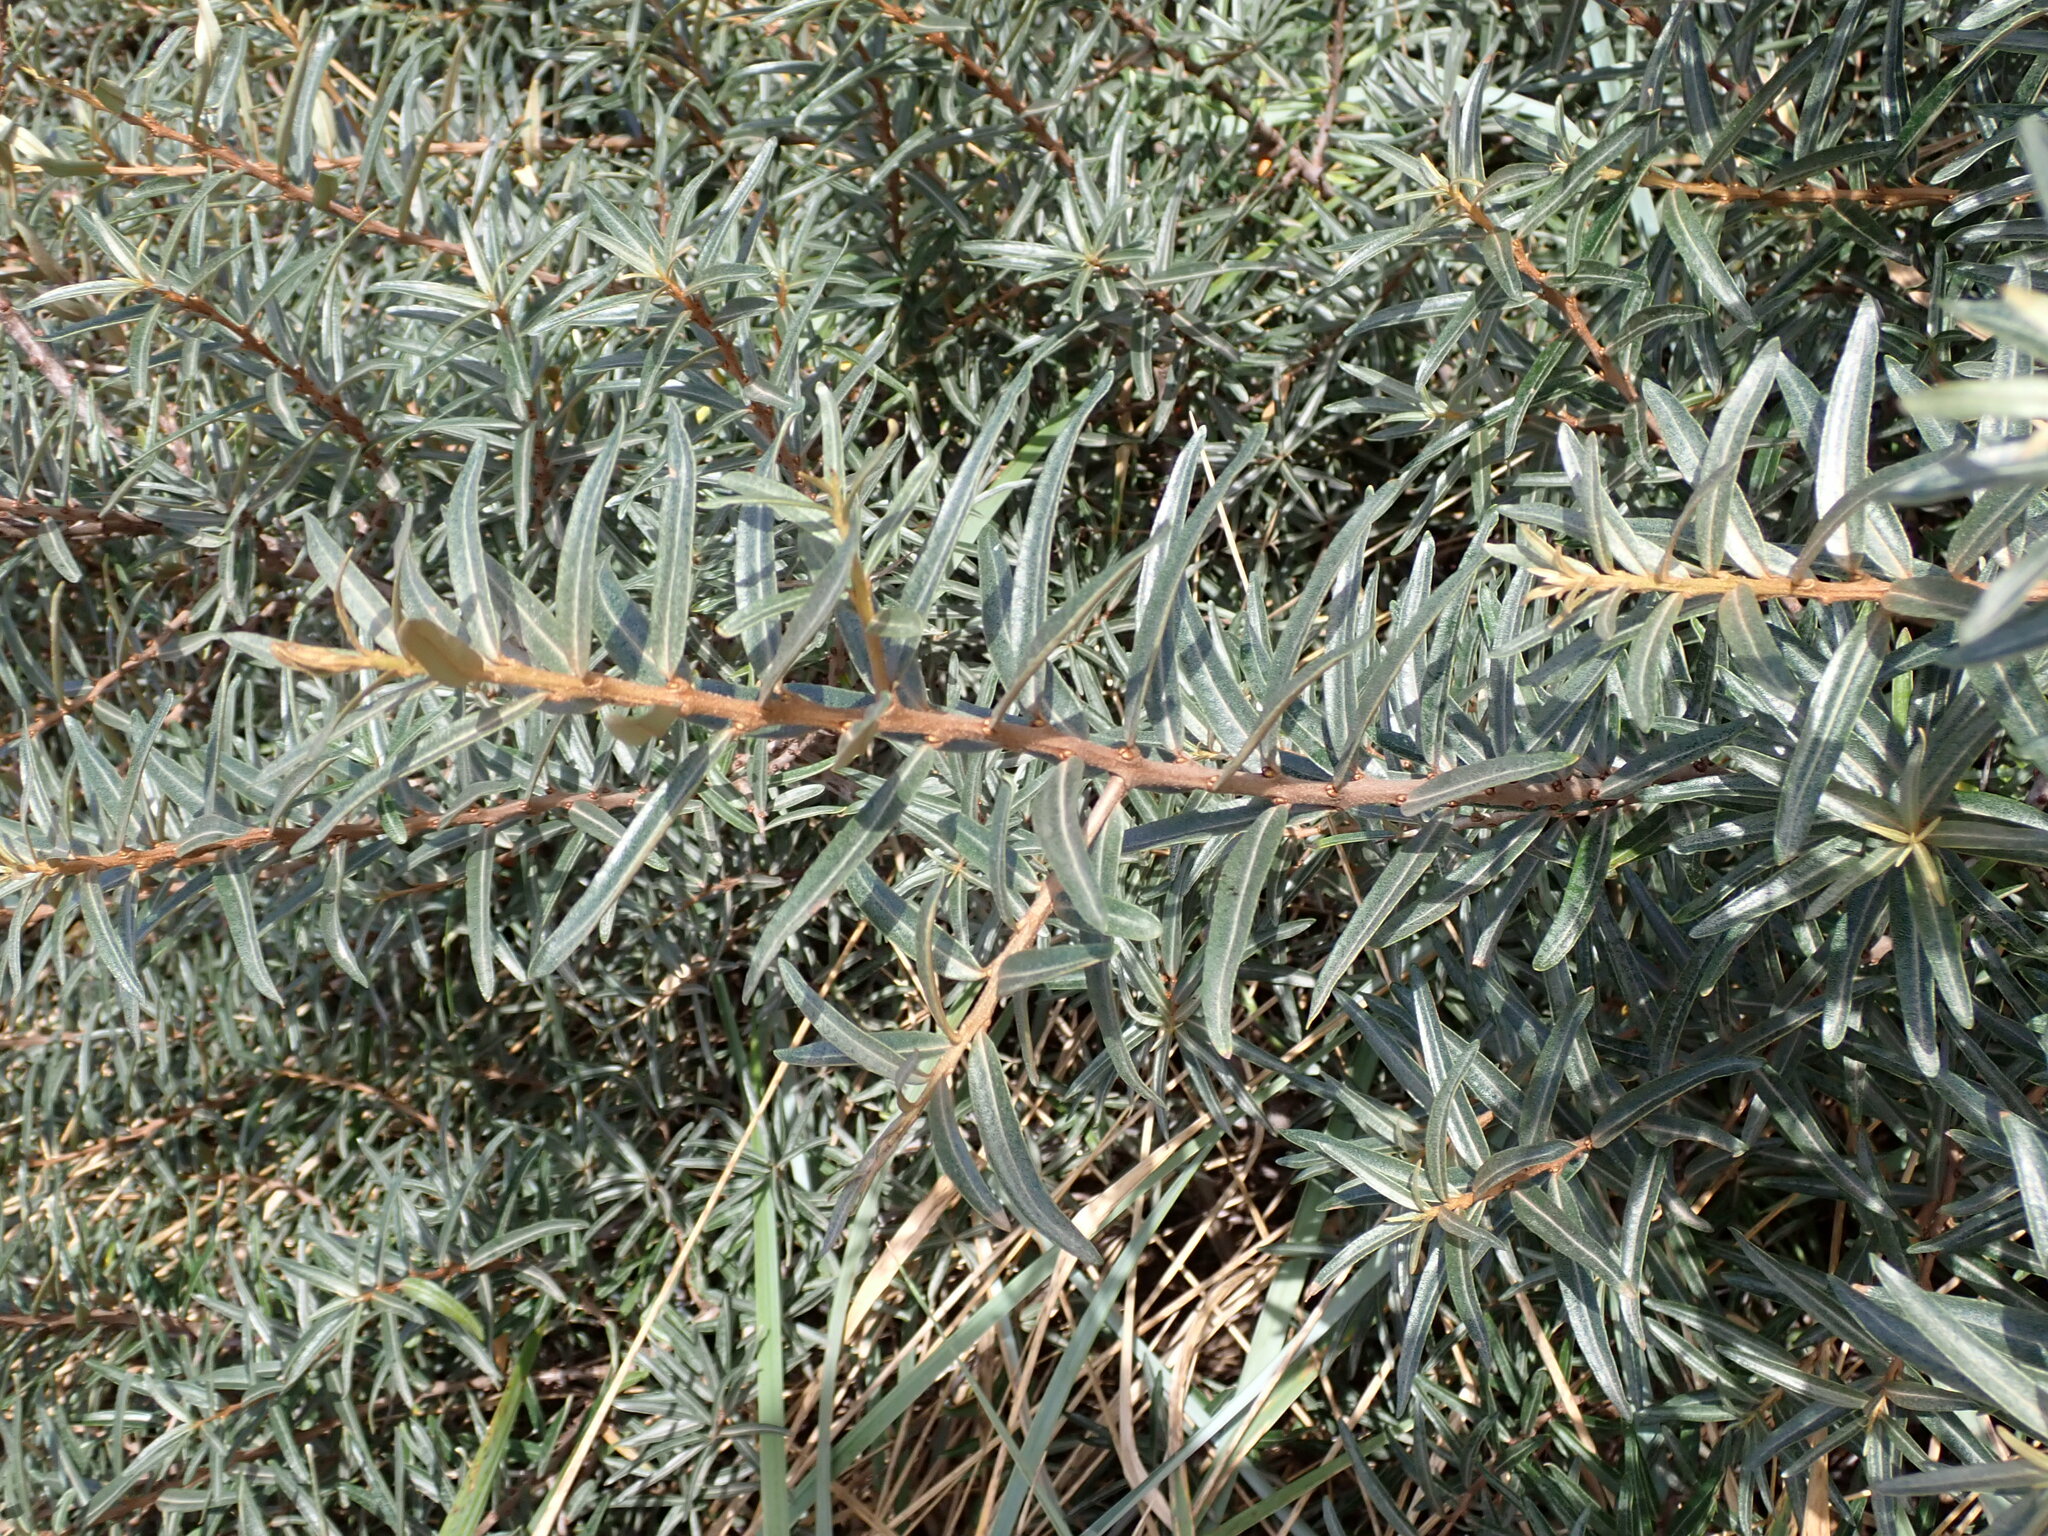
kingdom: Plantae
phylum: Tracheophyta
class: Magnoliopsida
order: Rosales
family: Elaeagnaceae
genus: Hippophae
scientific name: Hippophae rhamnoides
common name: Sea-buckthorn
